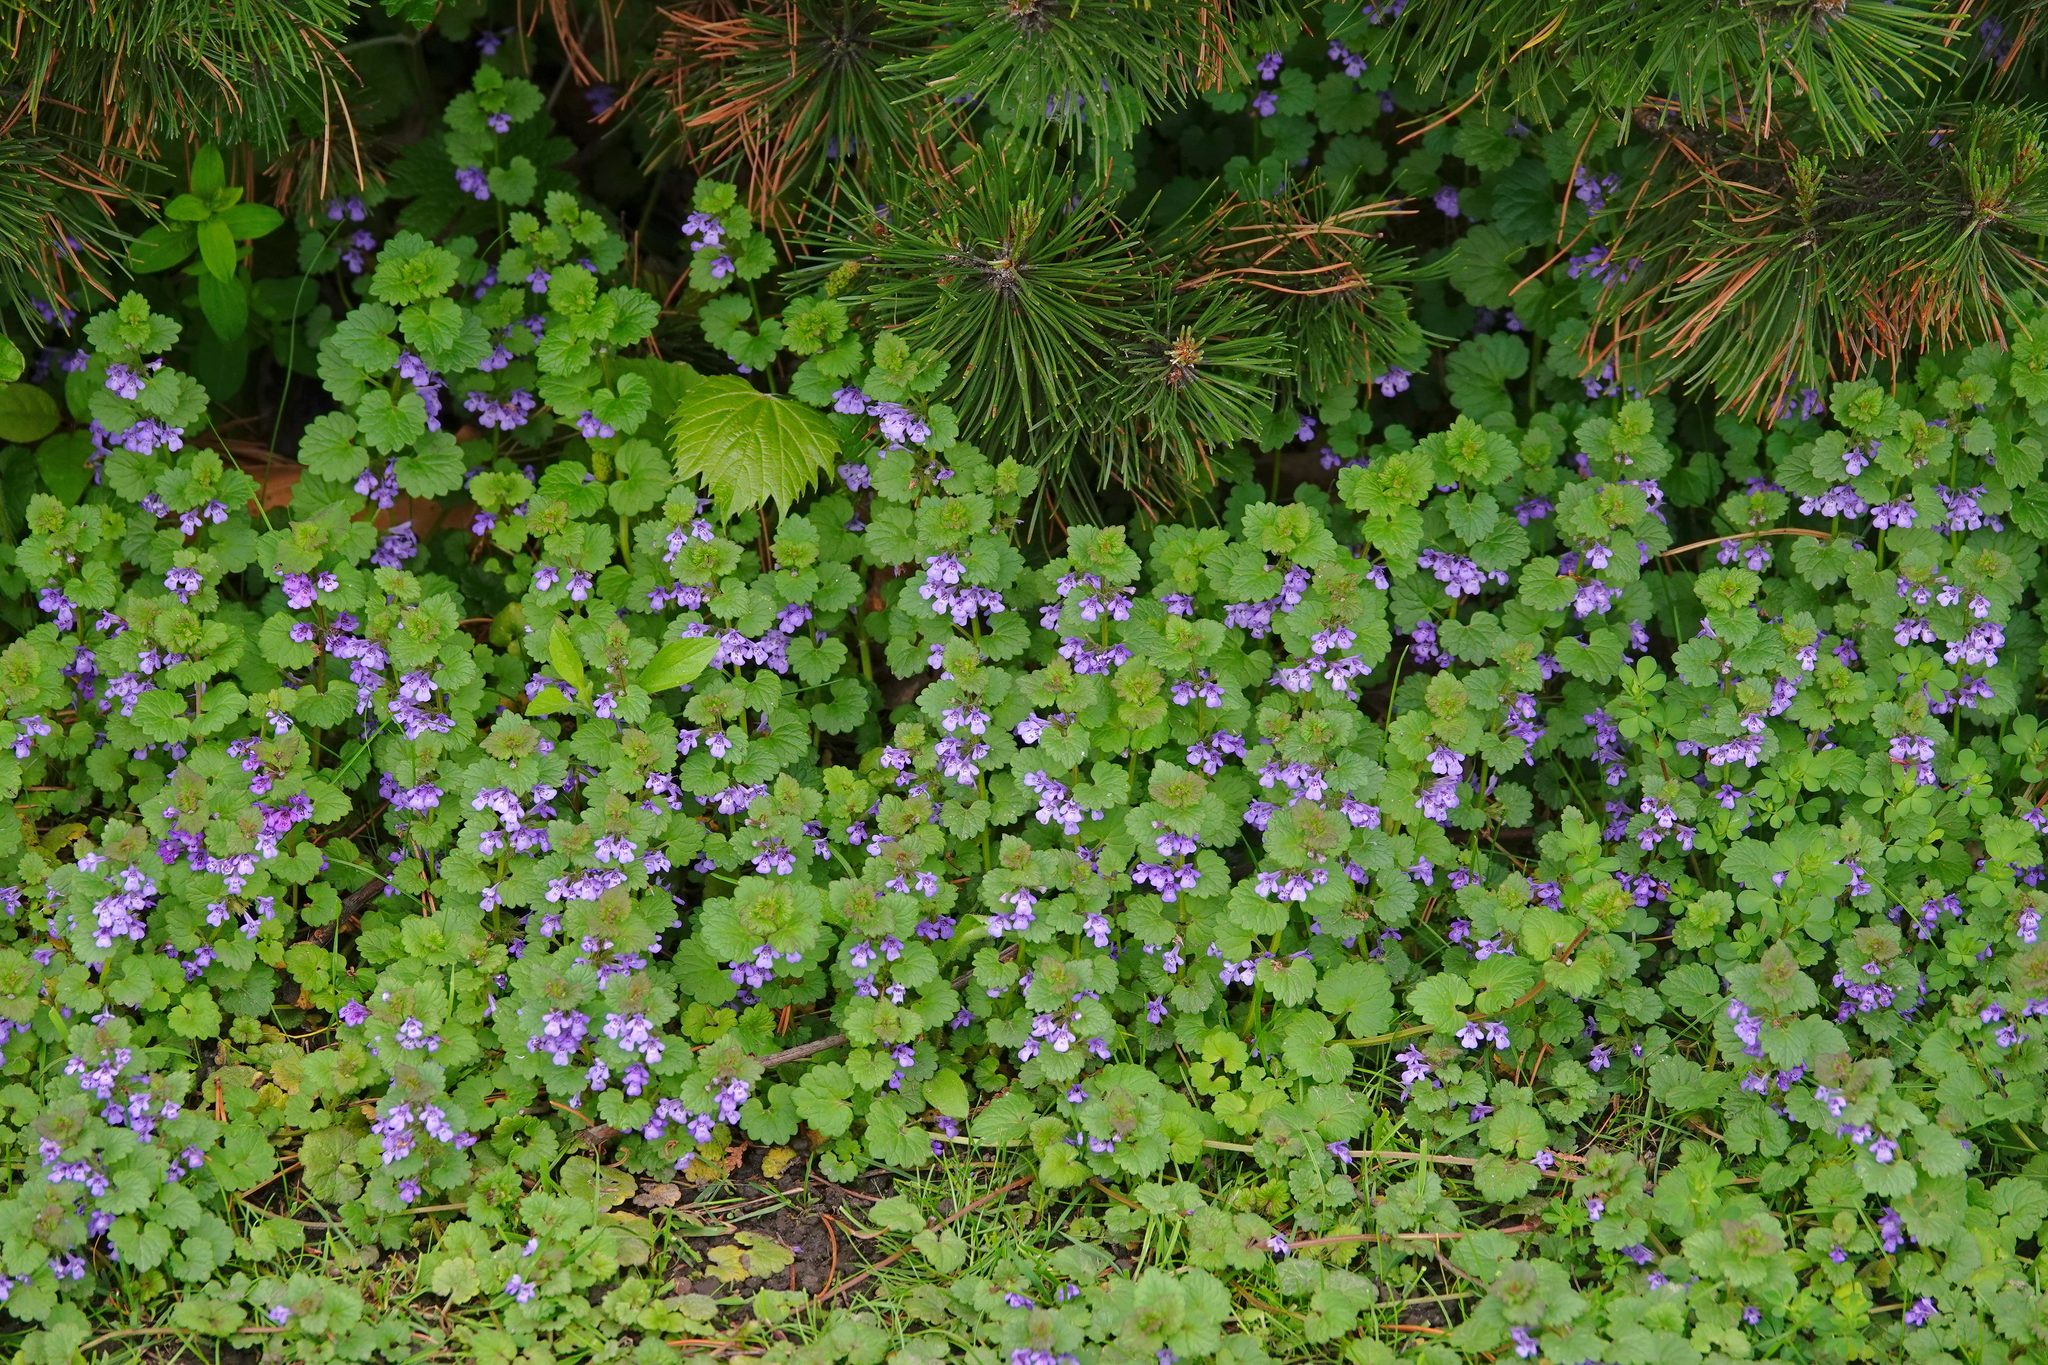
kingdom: Plantae
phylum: Tracheophyta
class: Magnoliopsida
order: Lamiales
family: Lamiaceae
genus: Glechoma
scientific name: Glechoma hederacea
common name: Ground ivy
